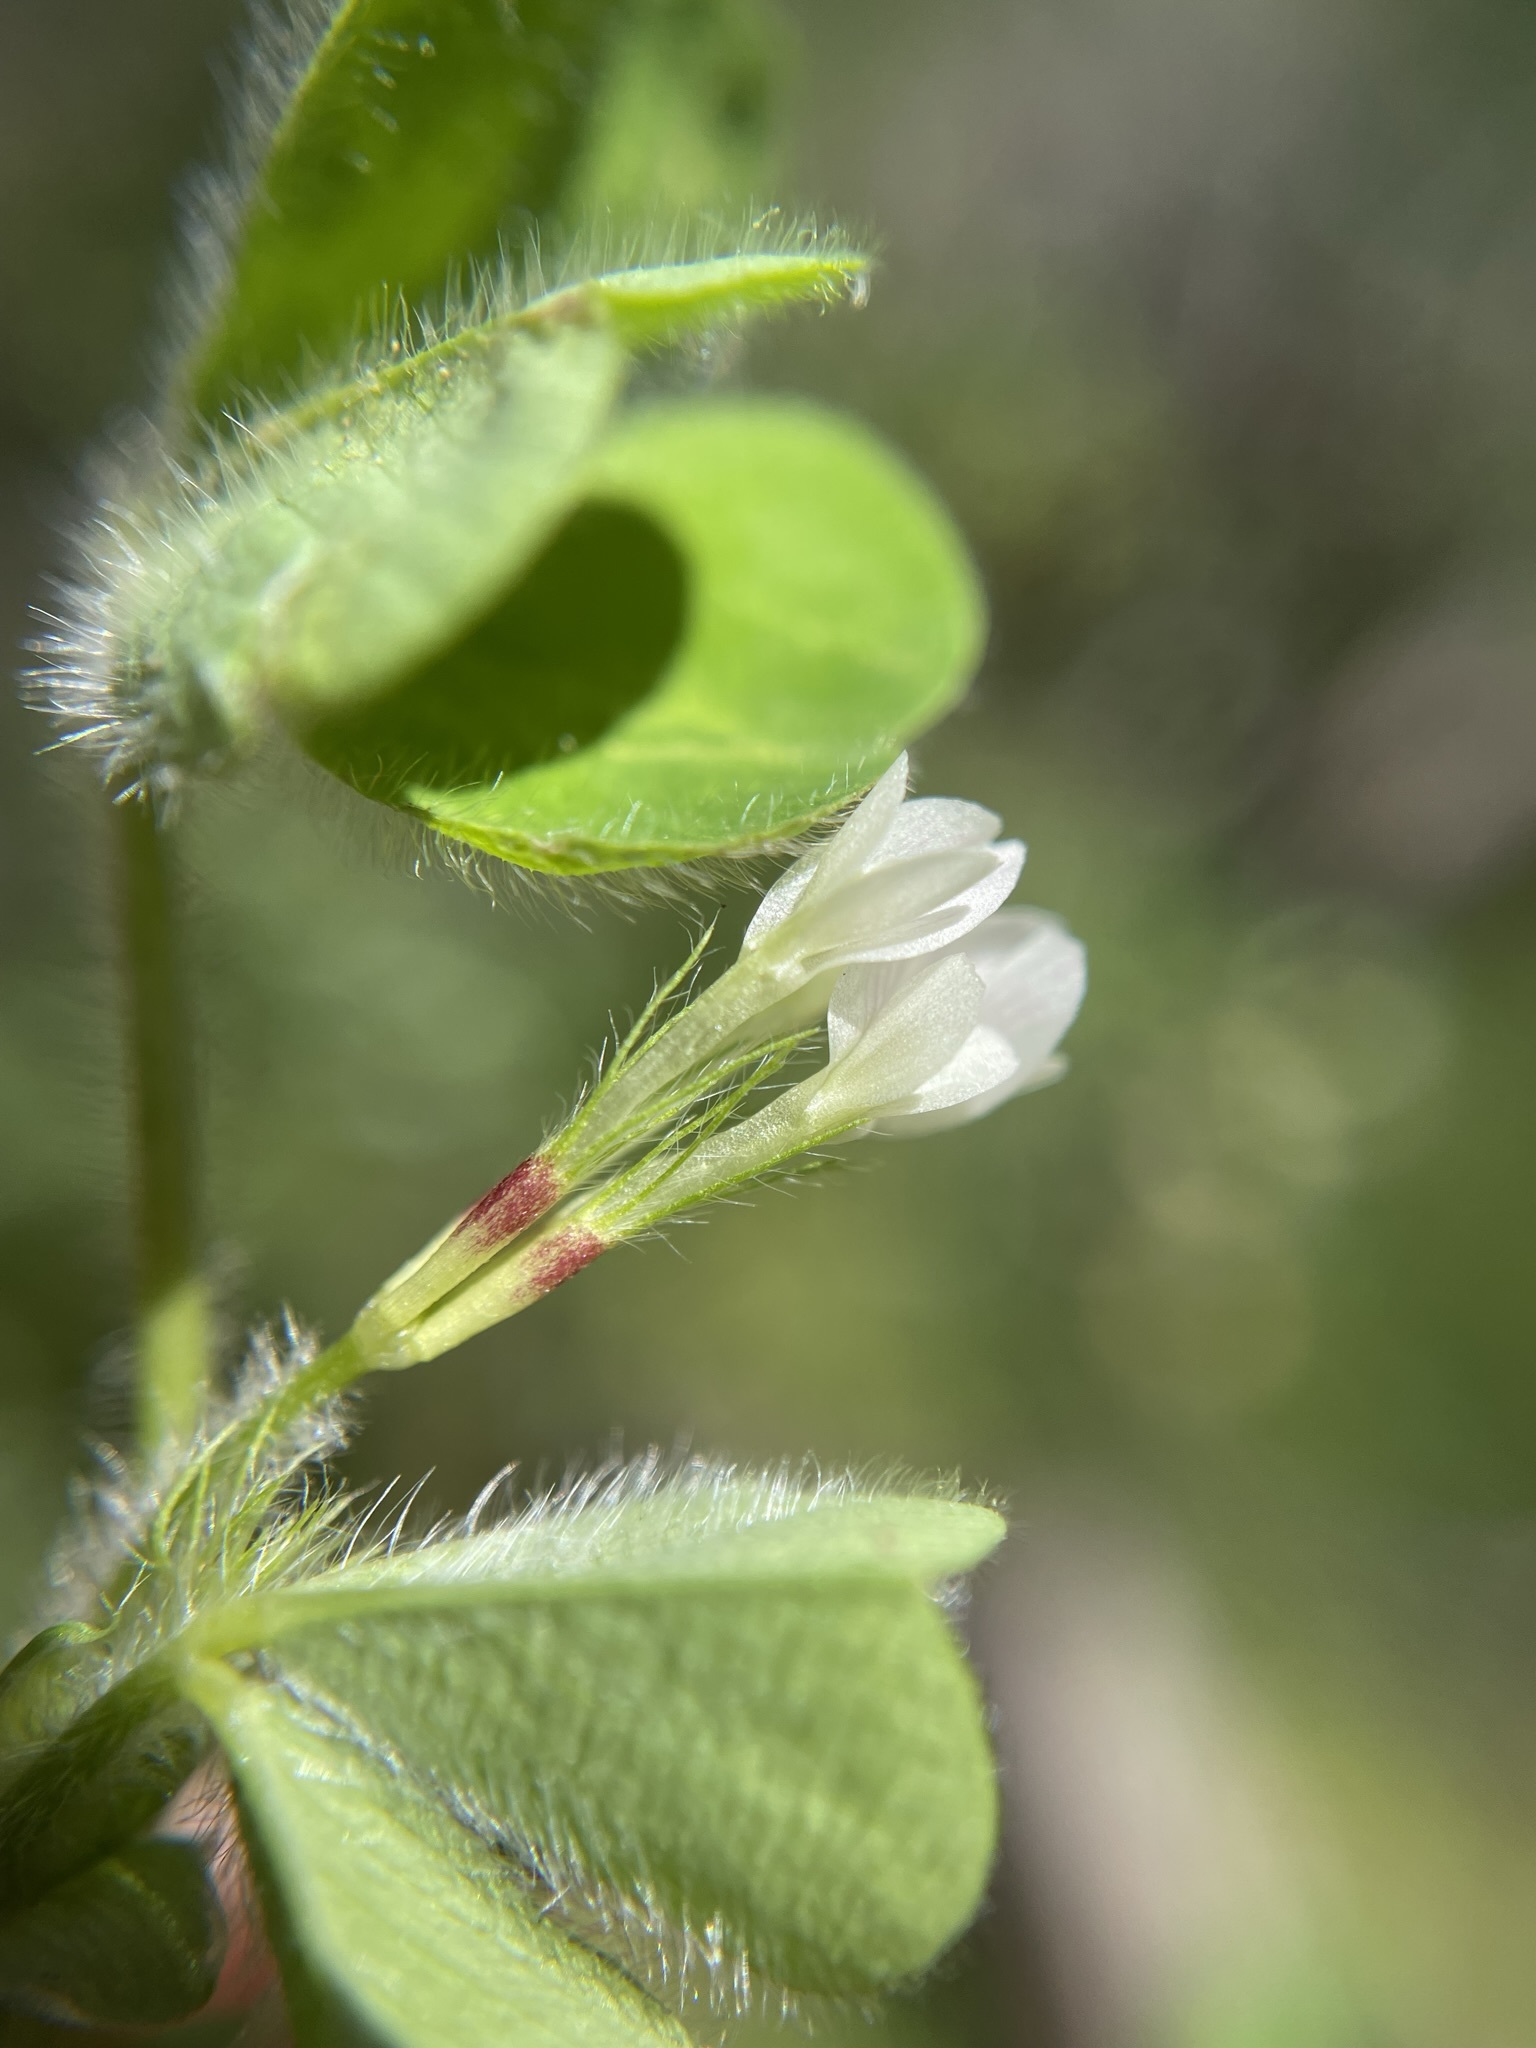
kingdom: Plantae
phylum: Tracheophyta
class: Magnoliopsida
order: Fabales
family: Fabaceae
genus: Trifolium
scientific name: Trifolium subterraneum
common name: Subterranean clover
